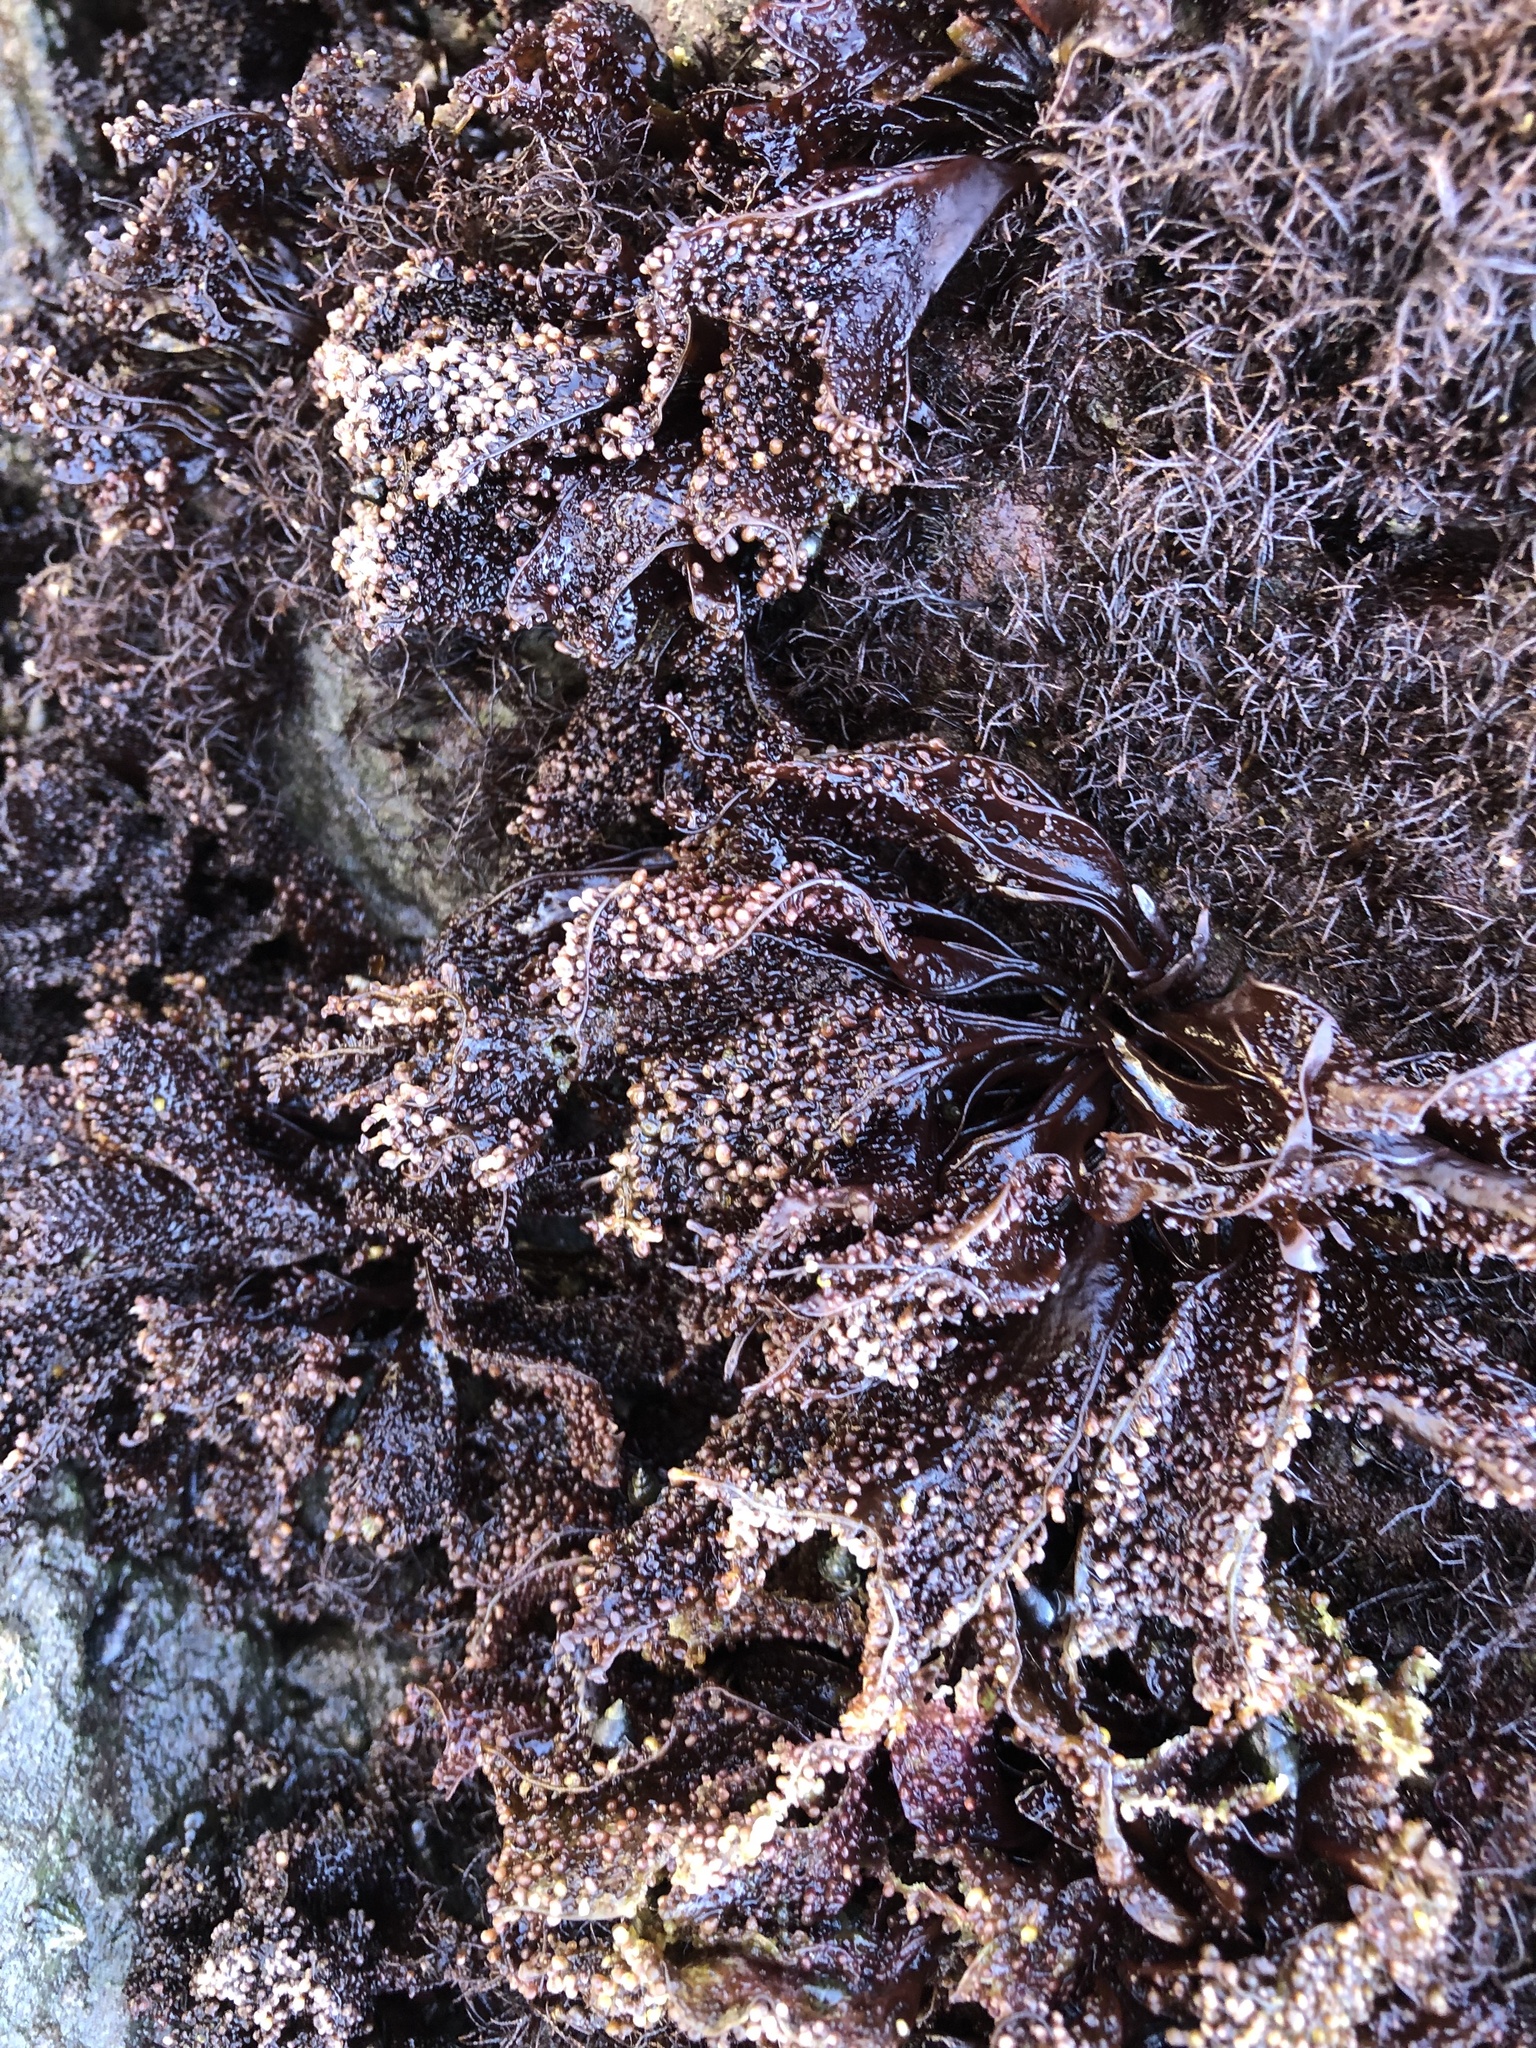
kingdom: Plantae
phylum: Rhodophyta
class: Florideophyceae
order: Gigartinales
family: Phyllophoraceae
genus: Mastocarpus
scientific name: Mastocarpus papillatus
